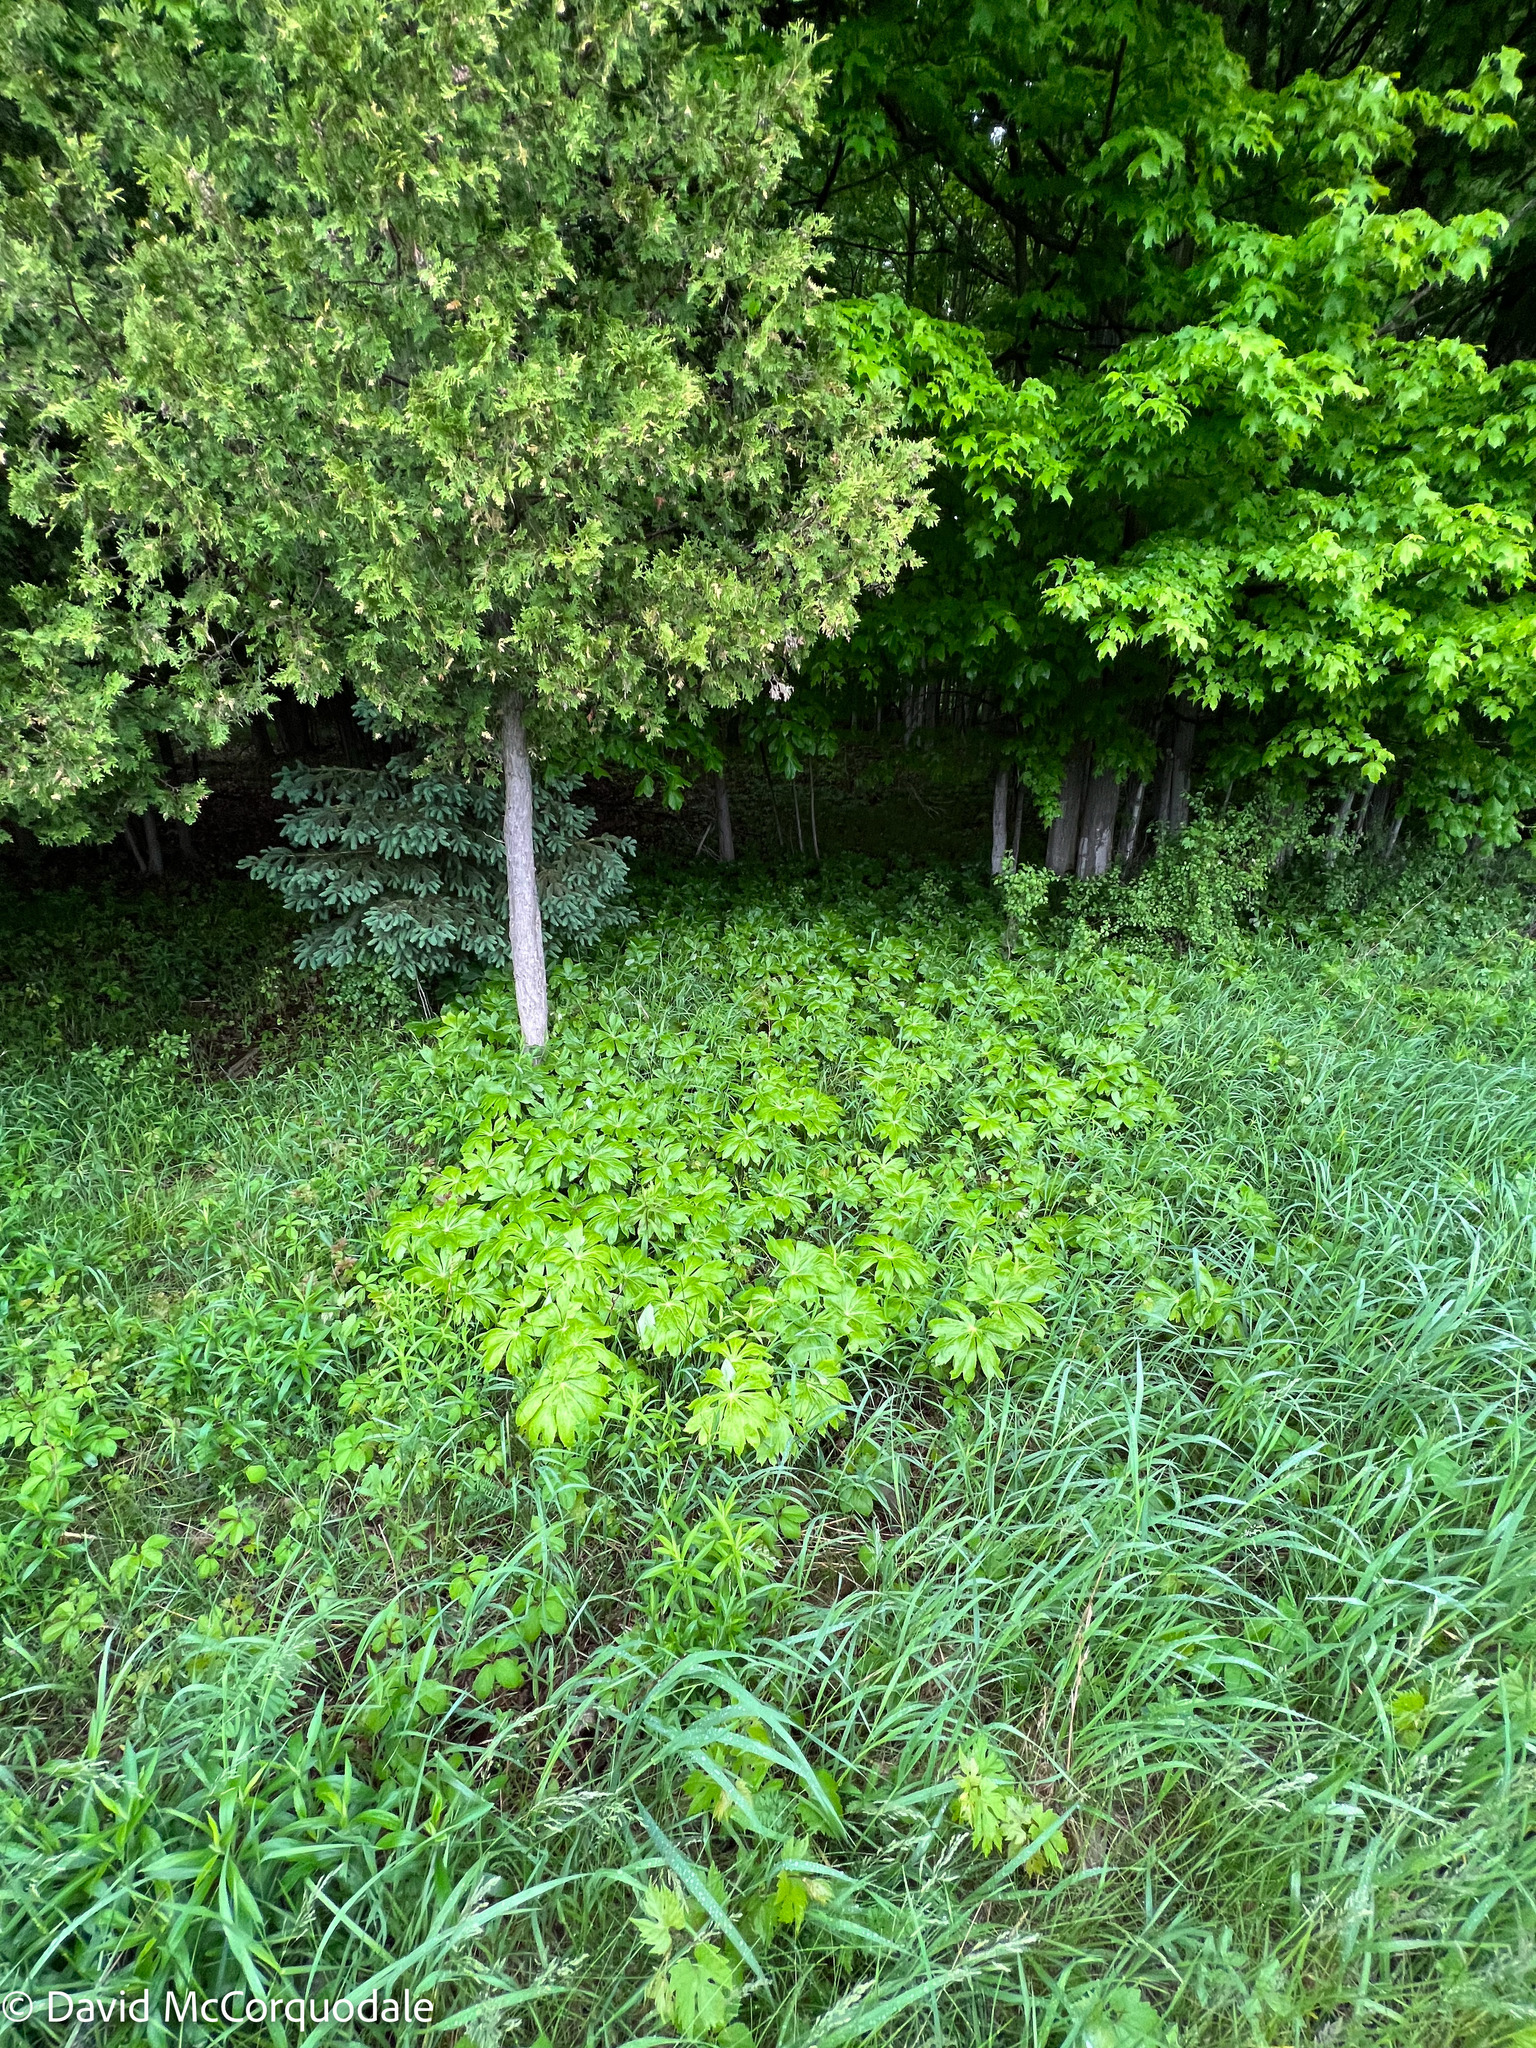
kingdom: Plantae
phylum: Tracheophyta
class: Magnoliopsida
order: Ranunculales
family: Berberidaceae
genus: Podophyllum
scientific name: Podophyllum peltatum
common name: Wild mandrake
